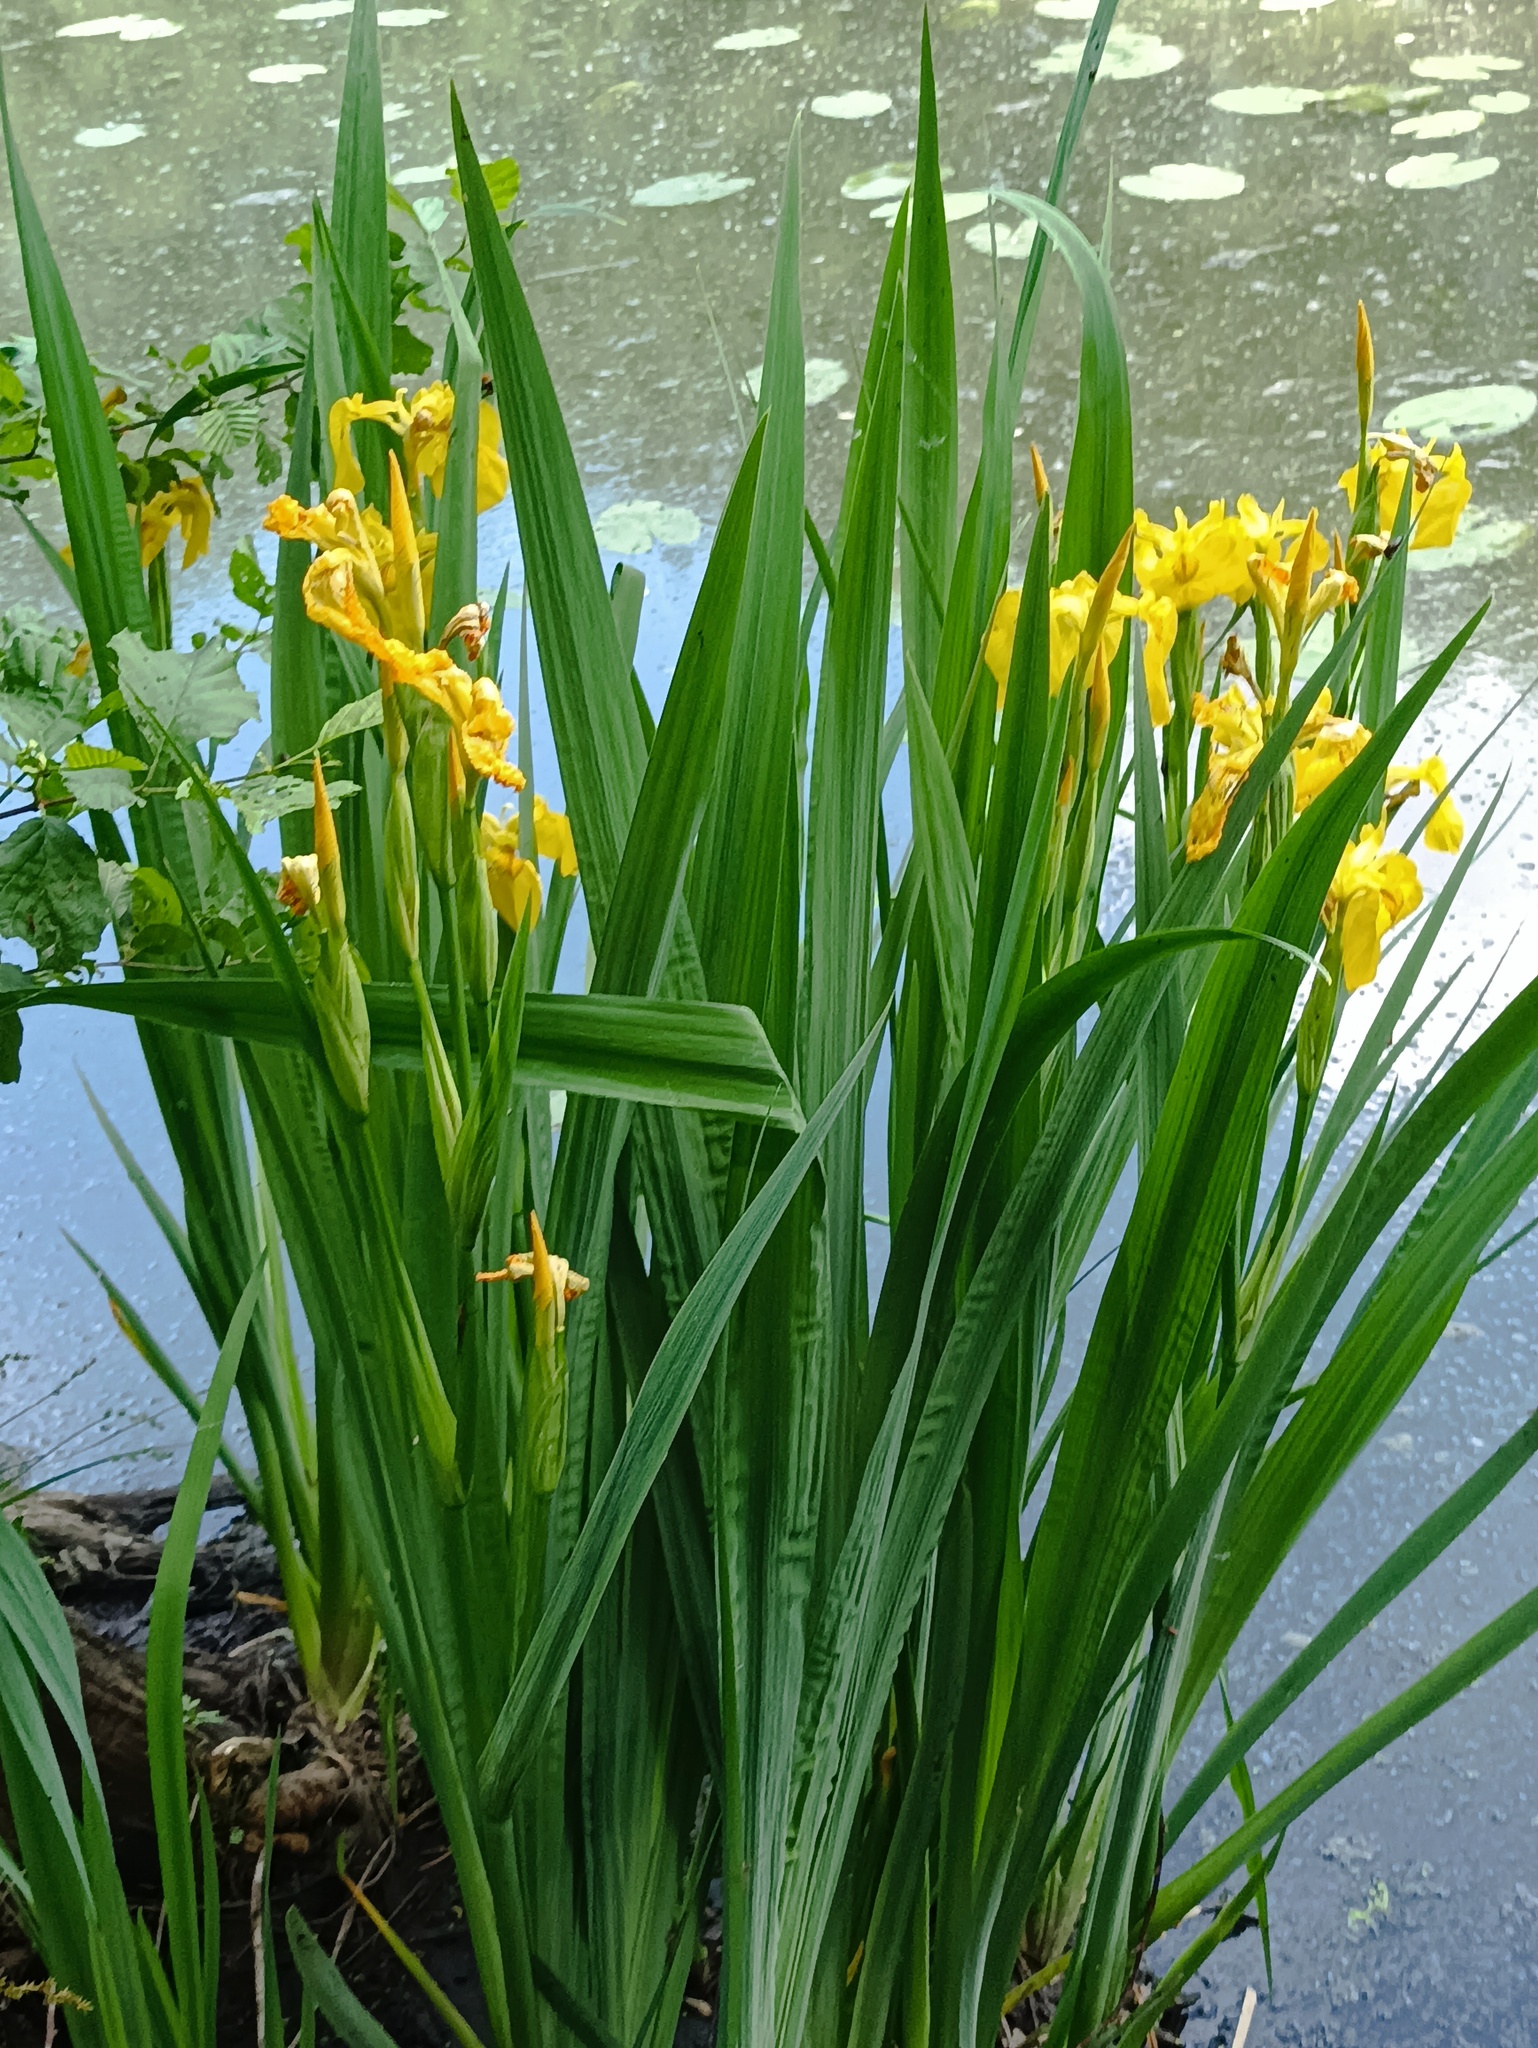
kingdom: Plantae
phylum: Tracheophyta
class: Liliopsida
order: Asparagales
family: Iridaceae
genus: Iris
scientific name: Iris pseudacorus
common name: Yellow flag
